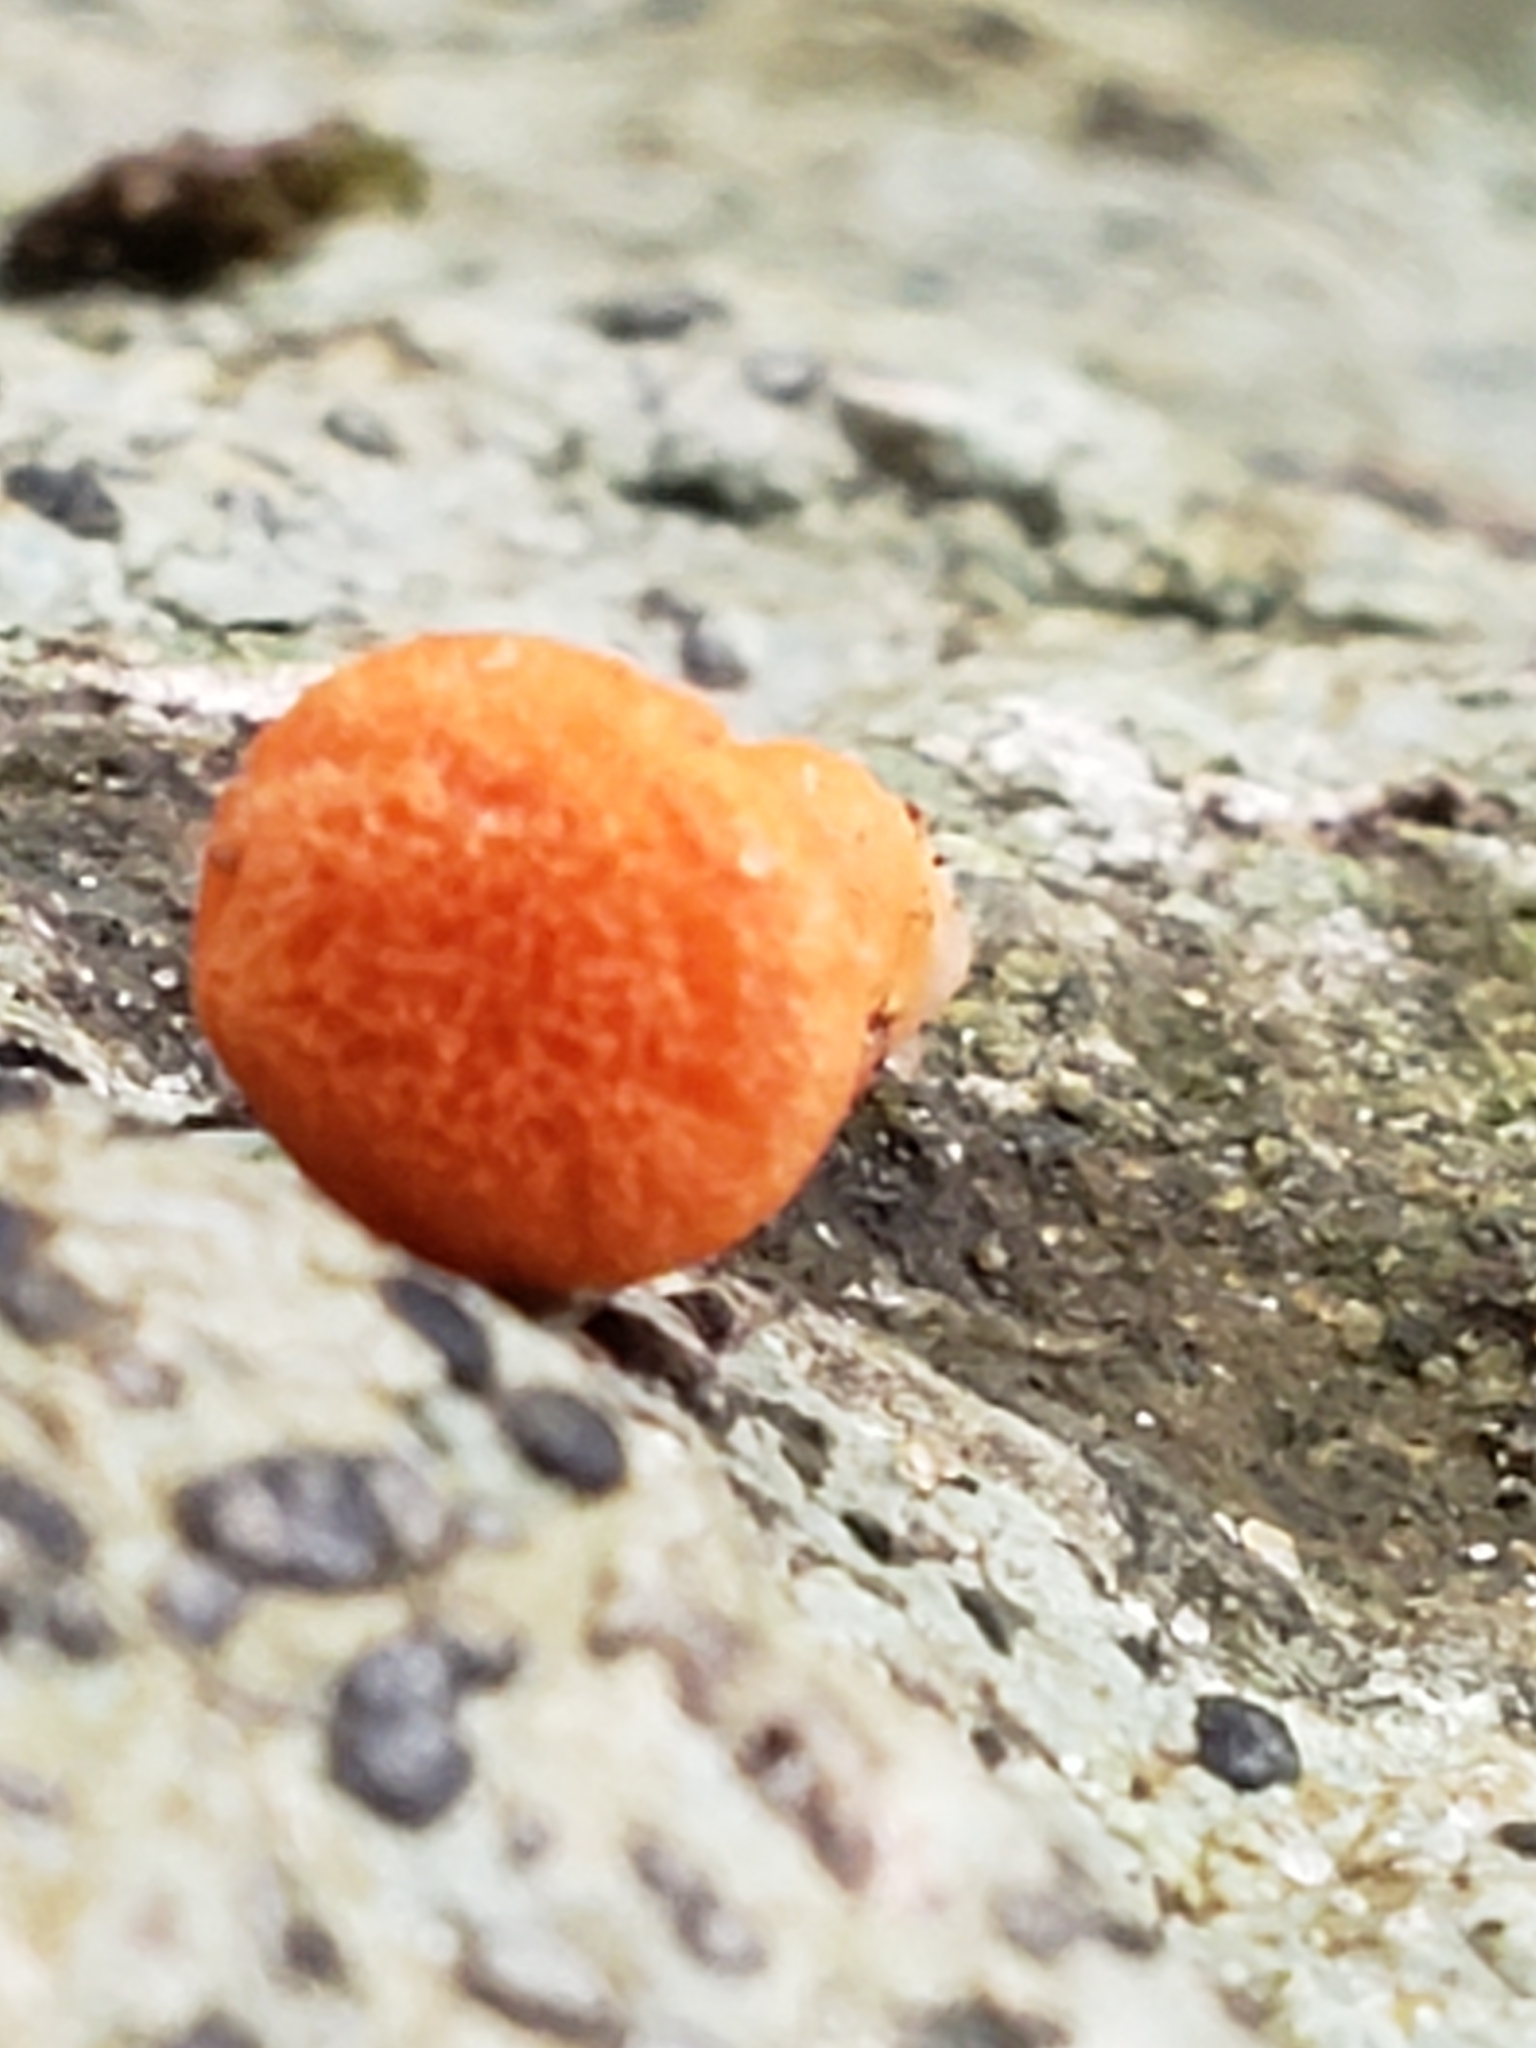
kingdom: Fungi
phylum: Basidiomycota
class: Agaricomycetes
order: Cantharellales
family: Hydnaceae
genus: Cantharellus
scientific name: Cantharellus cinnabarinus
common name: Cinnabar chanterelle
